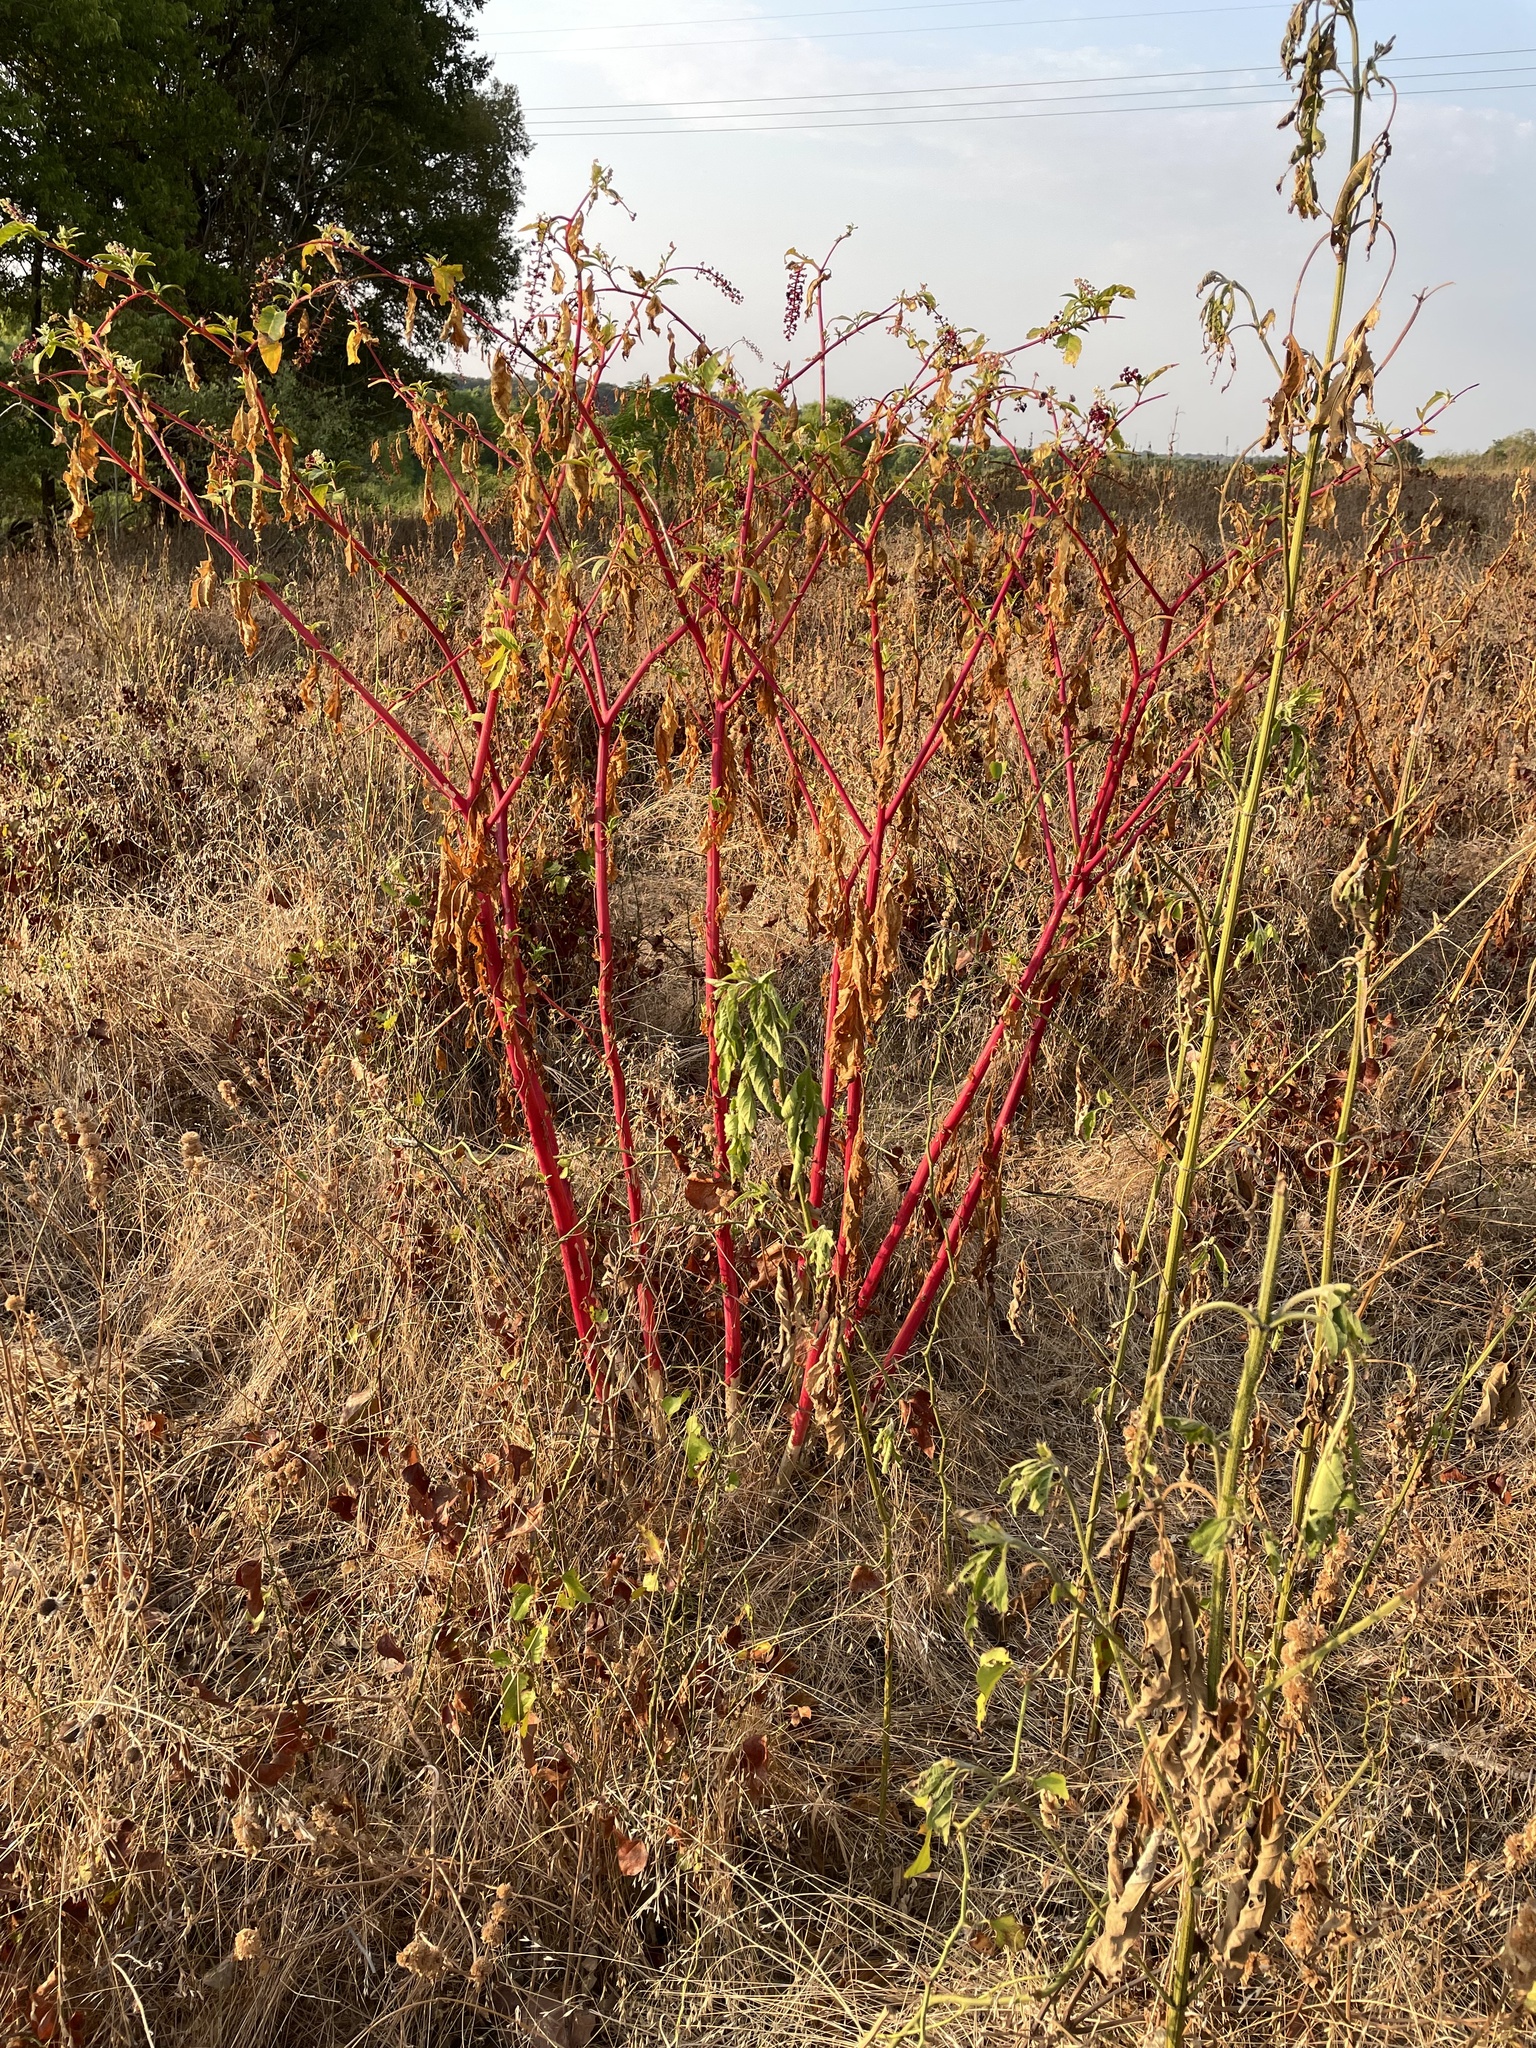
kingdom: Plantae
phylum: Tracheophyta
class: Magnoliopsida
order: Caryophyllales
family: Phytolaccaceae
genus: Phytolacca
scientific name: Phytolacca americana
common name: American pokeweed
